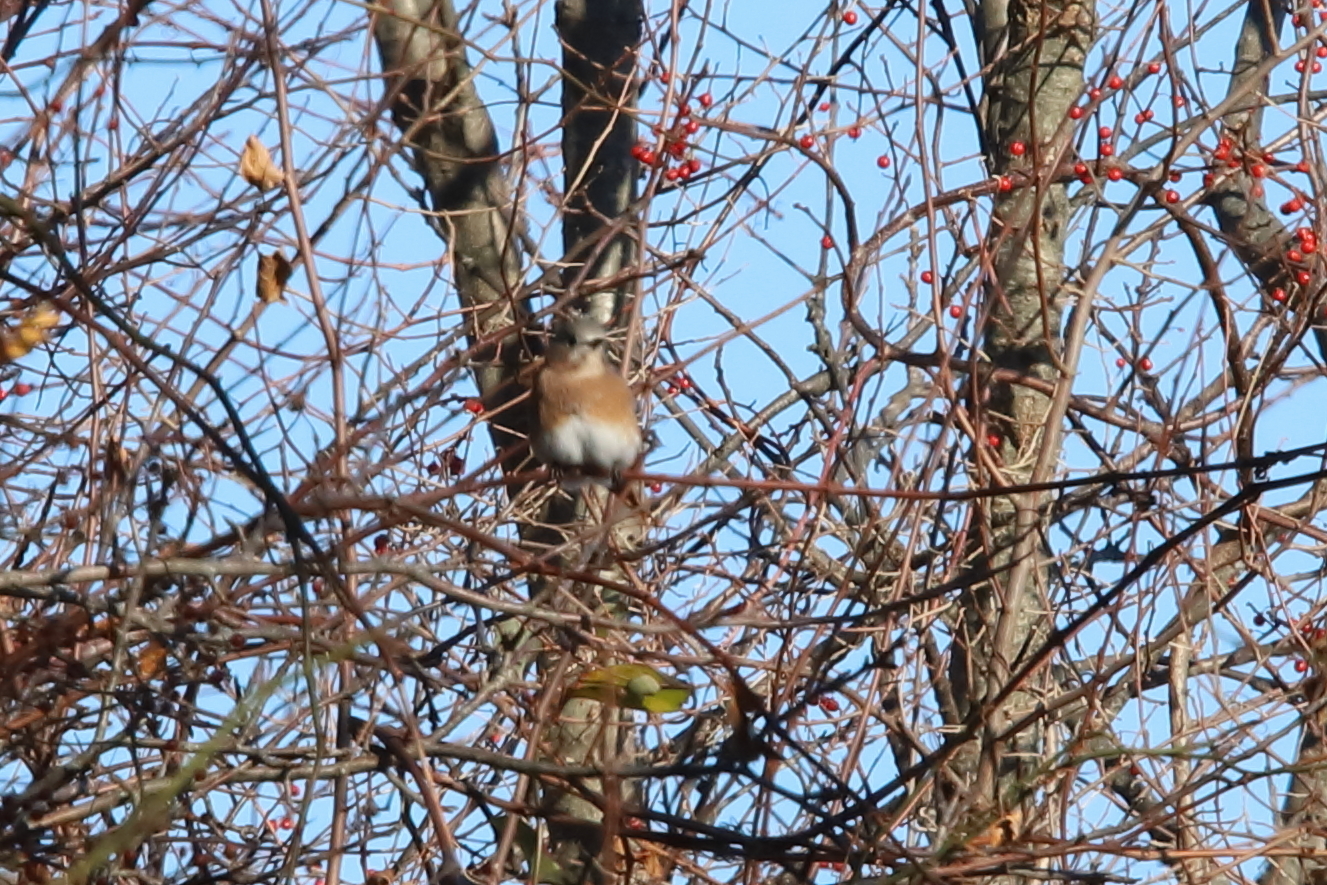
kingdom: Animalia
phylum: Chordata
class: Aves
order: Passeriformes
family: Turdidae
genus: Sialia
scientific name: Sialia sialis
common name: Eastern bluebird
